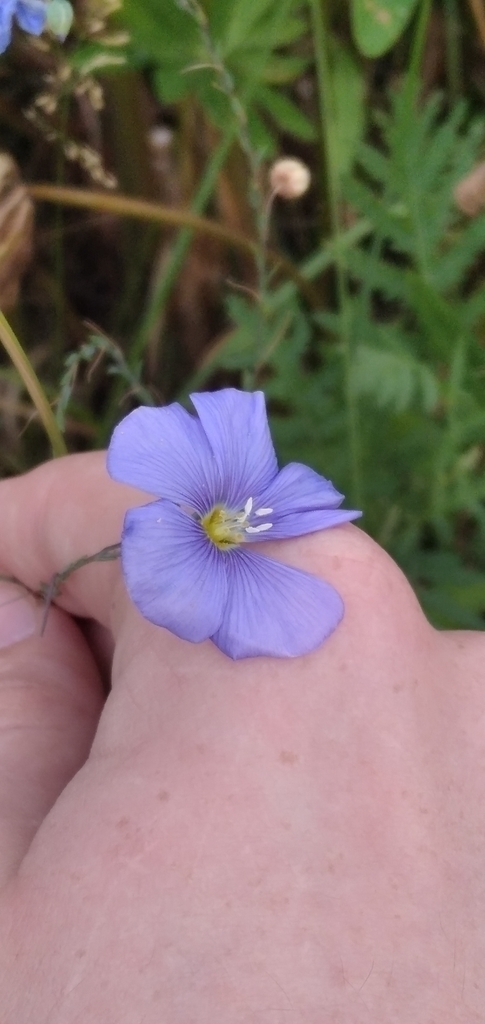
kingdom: Plantae
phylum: Tracheophyta
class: Magnoliopsida
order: Malpighiales
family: Linaceae
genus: Linum
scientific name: Linum perenne
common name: Blue flax
